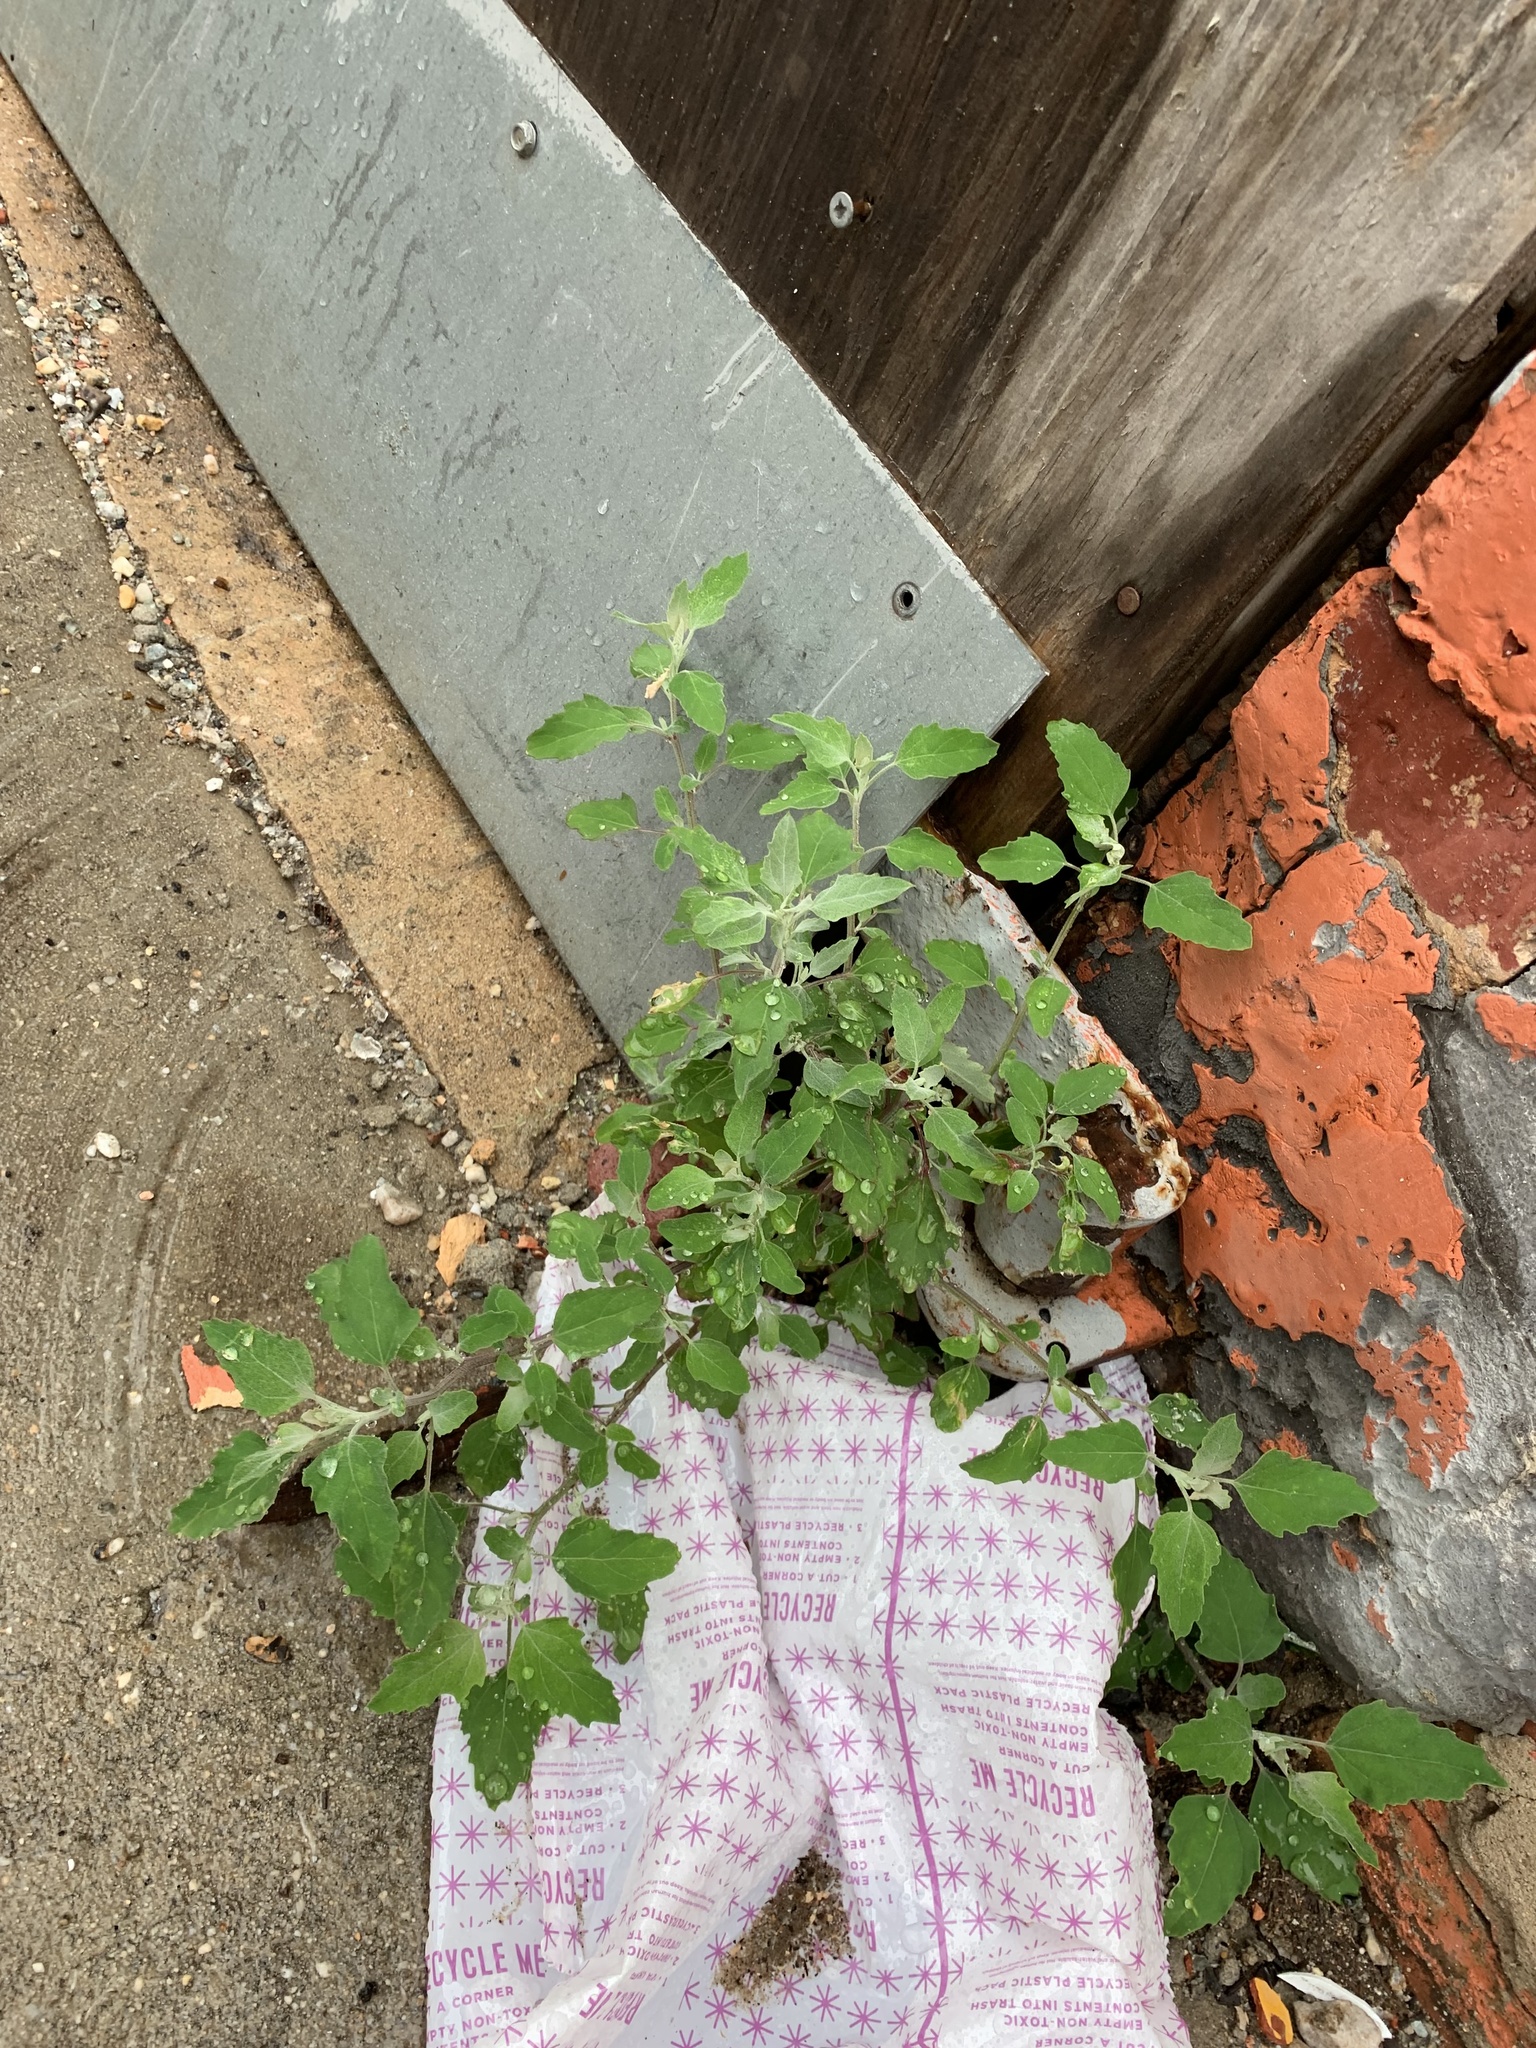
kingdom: Plantae
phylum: Tracheophyta
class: Magnoliopsida
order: Caryophyllales
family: Amaranthaceae
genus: Chenopodium
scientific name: Chenopodium album
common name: Fat-hen
